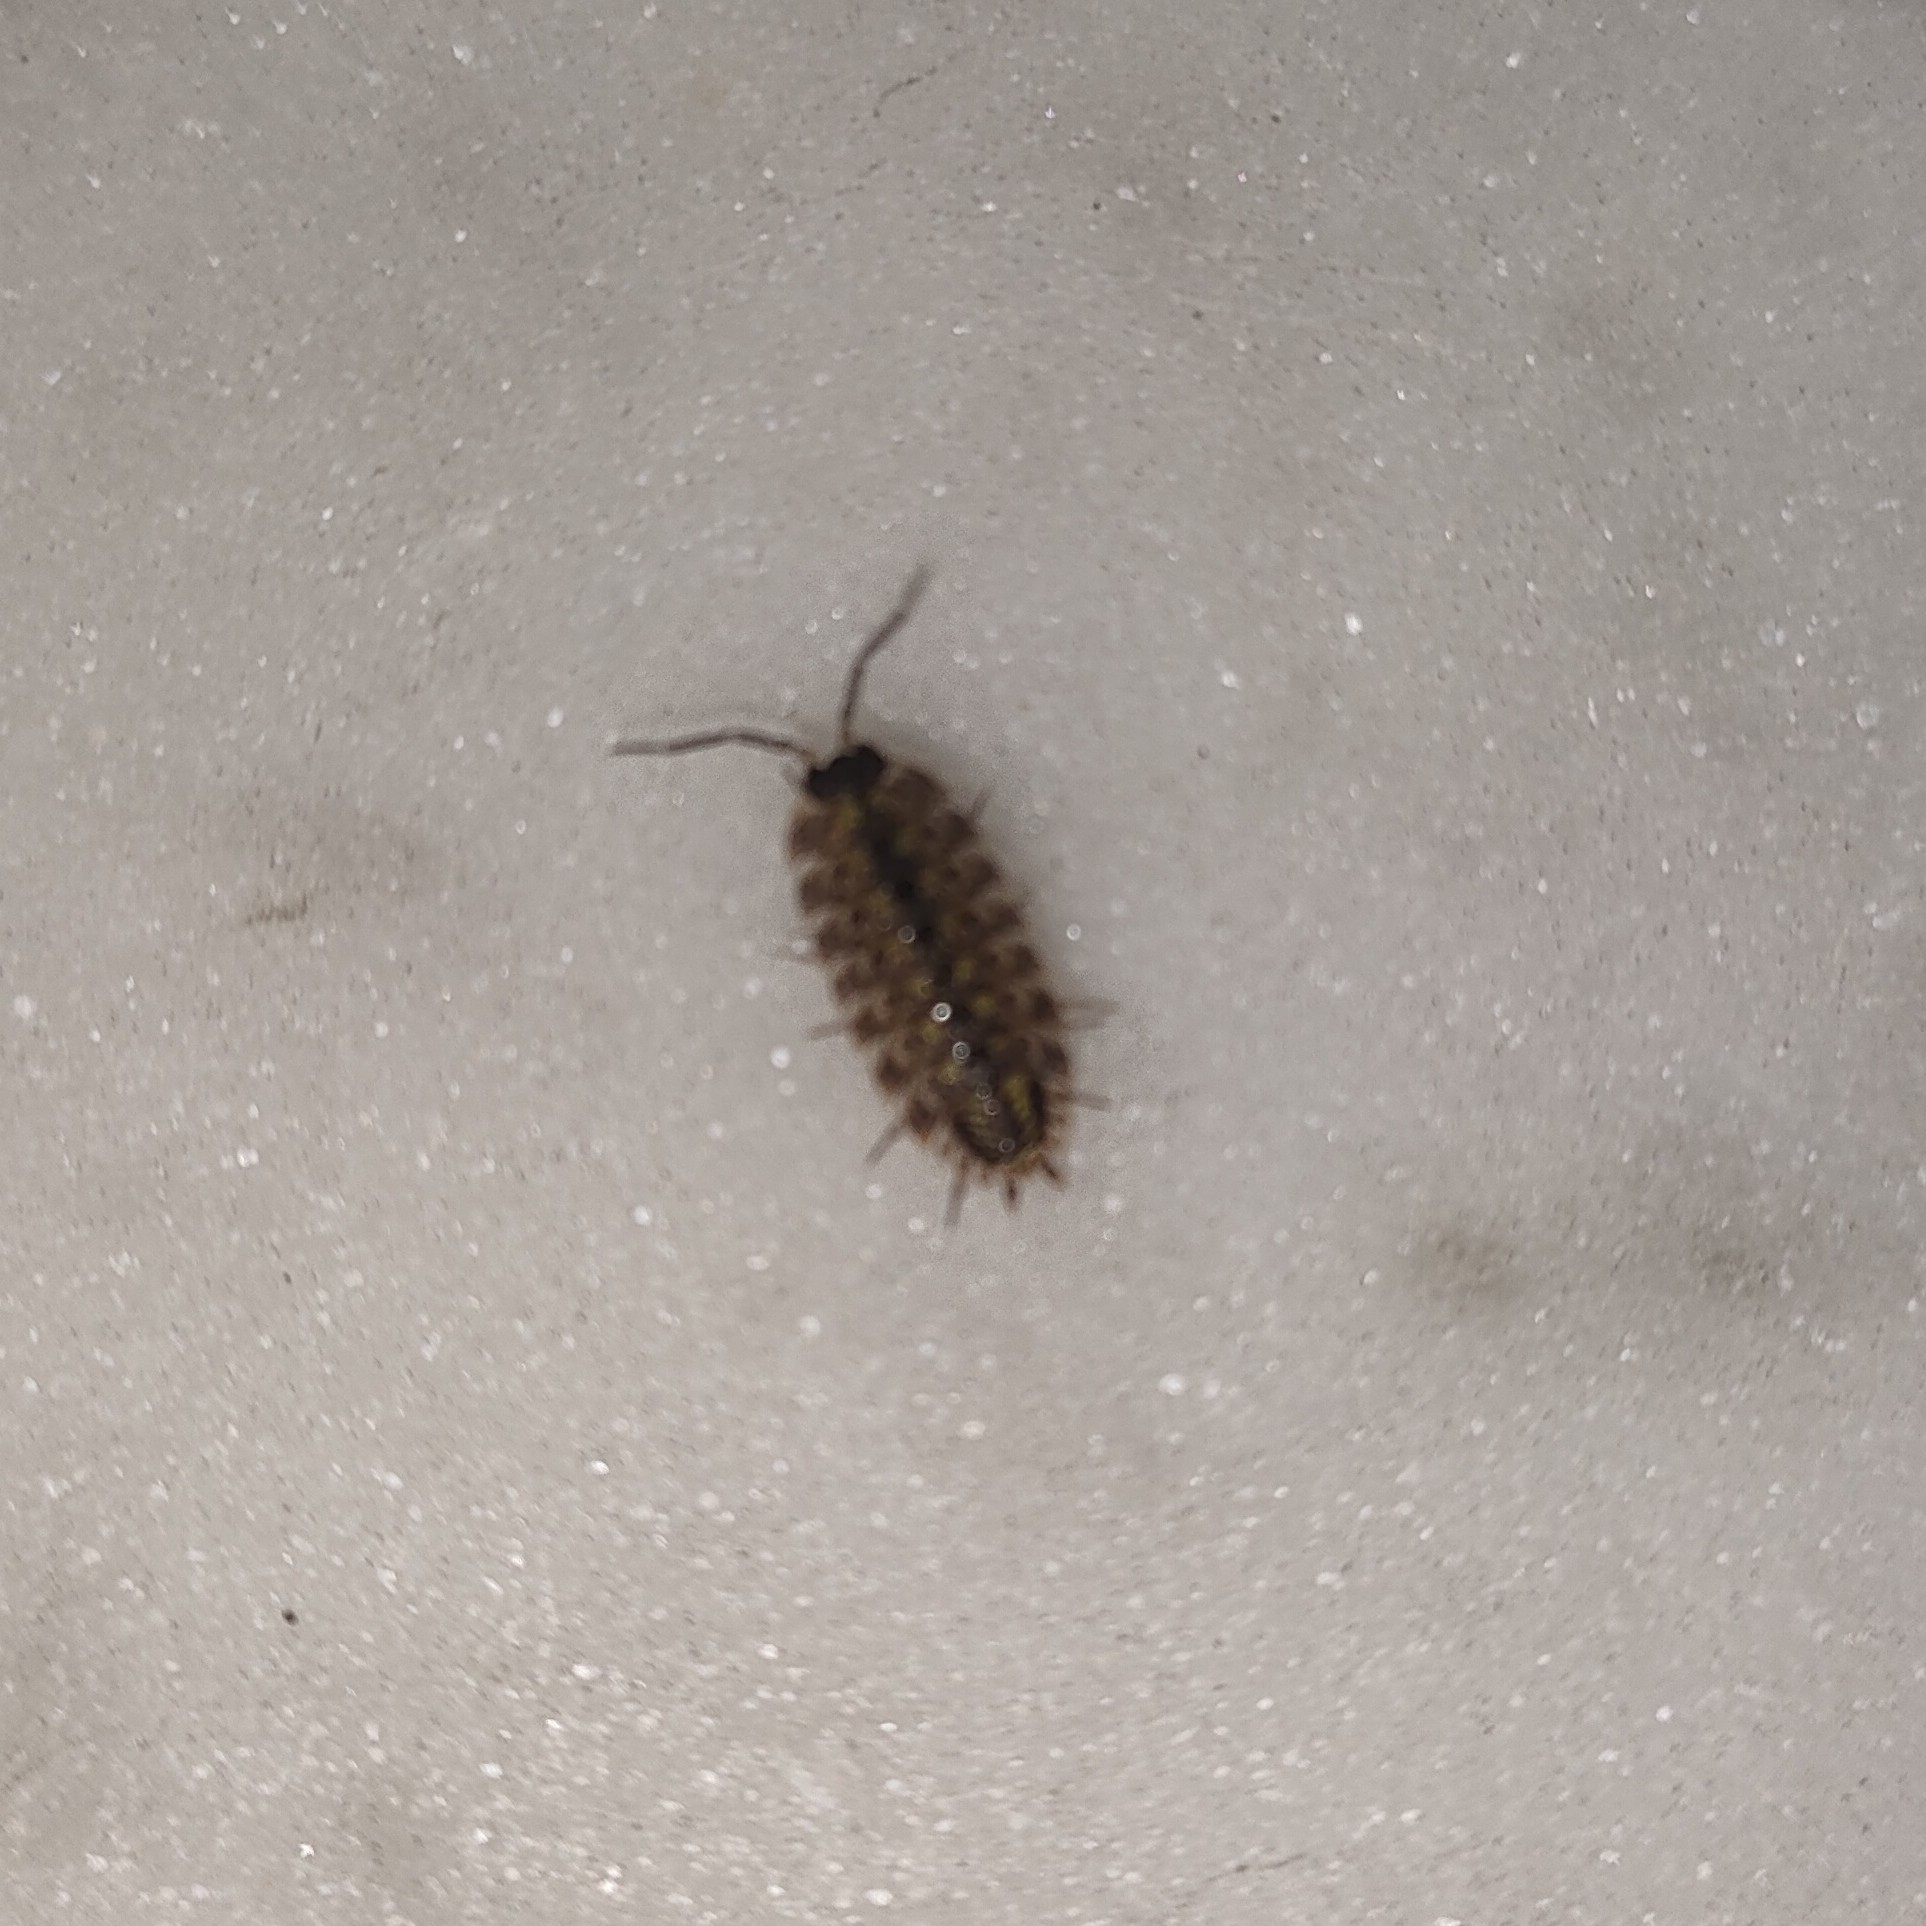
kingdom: Animalia
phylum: Arthropoda
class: Malacostraca
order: Isopoda
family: Porcellionidae
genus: Porcellio
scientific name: Porcellio spinicornis
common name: Painted woodlouse
